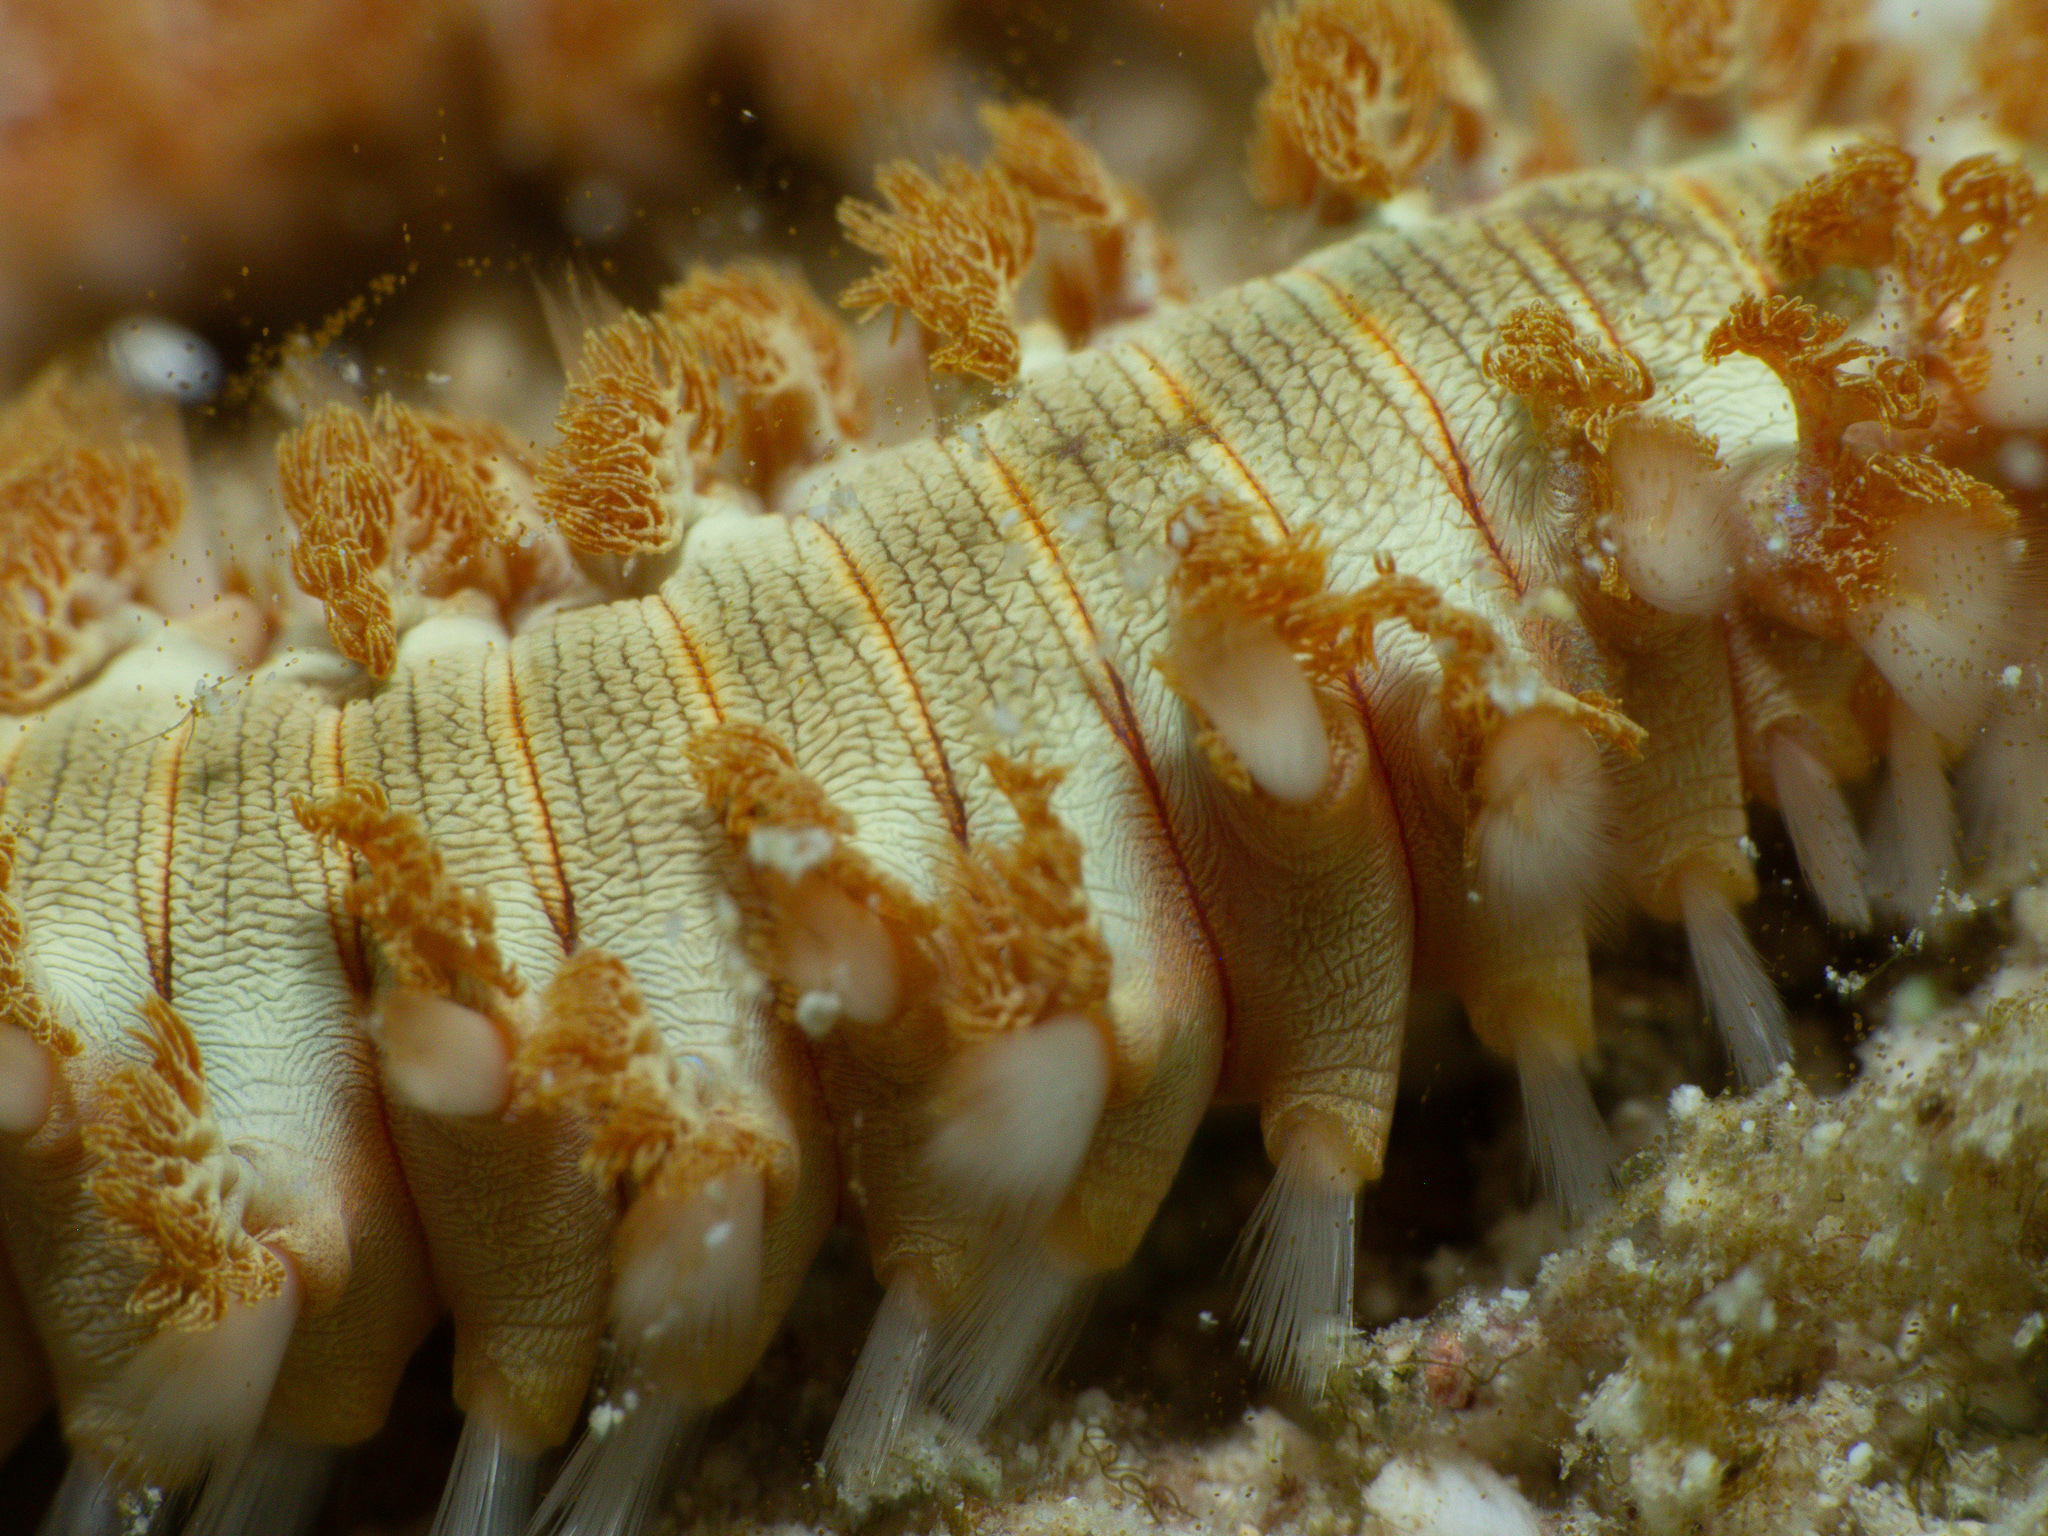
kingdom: Animalia
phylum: Annelida
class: Polychaeta
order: Amphinomida
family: Amphinomidae
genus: Hermodice
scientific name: Hermodice carunculata
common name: Bearded fireworm
